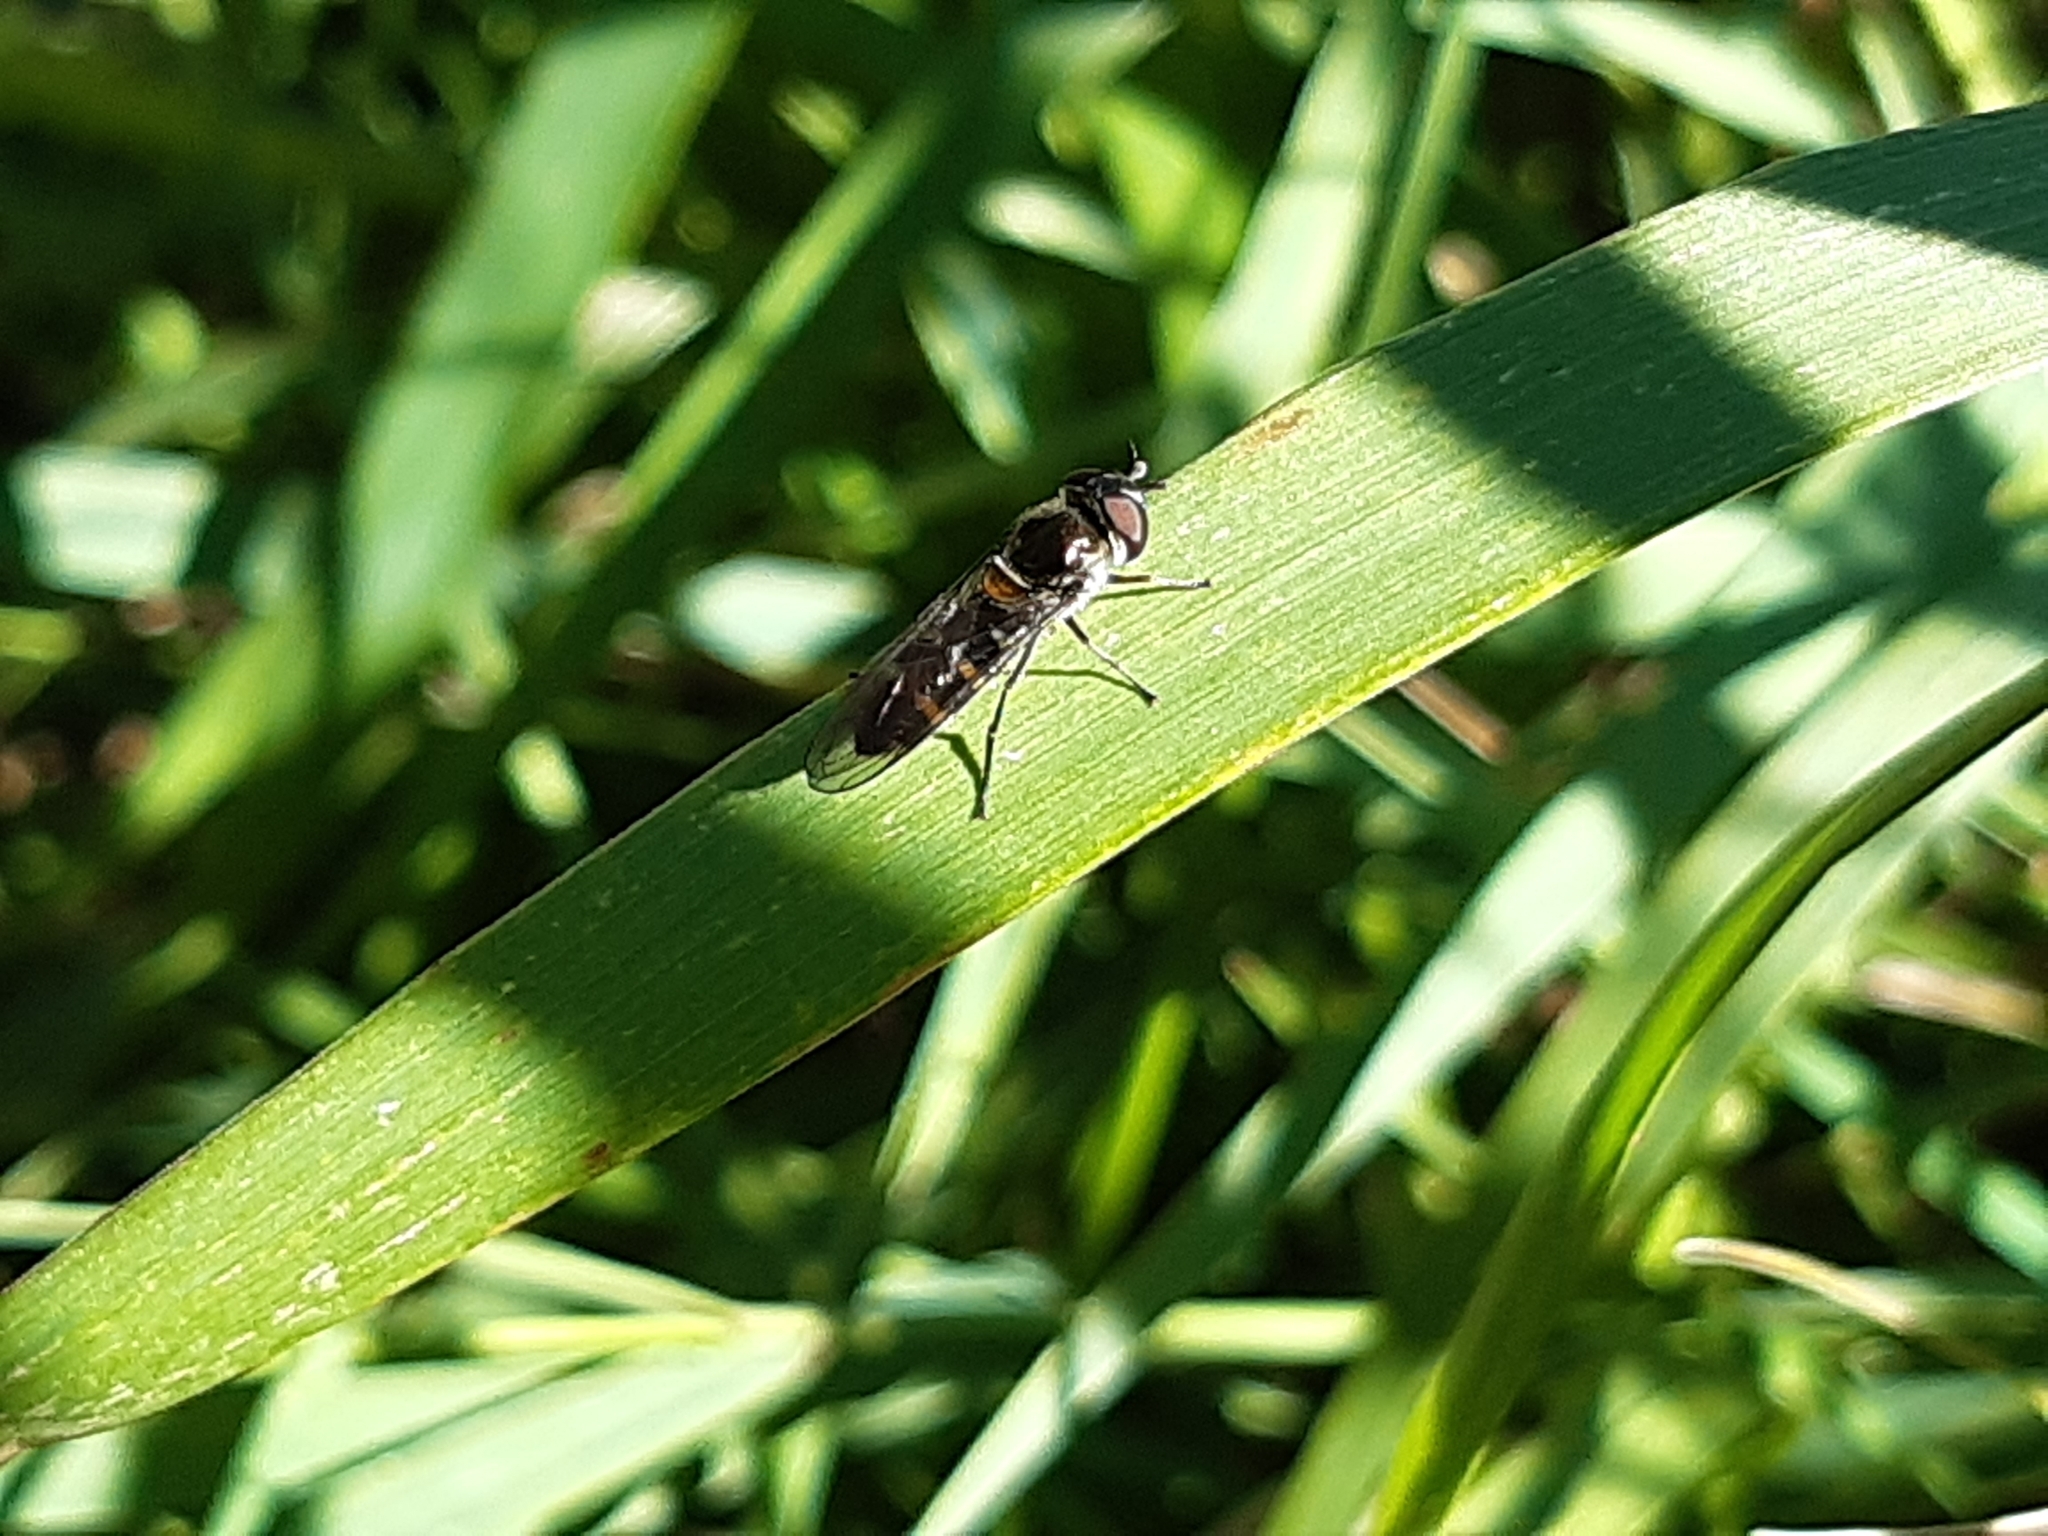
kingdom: Animalia
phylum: Arthropoda
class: Insecta
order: Diptera
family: Syrphidae
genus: Melangyna
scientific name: Melangyna novaezelandiae
